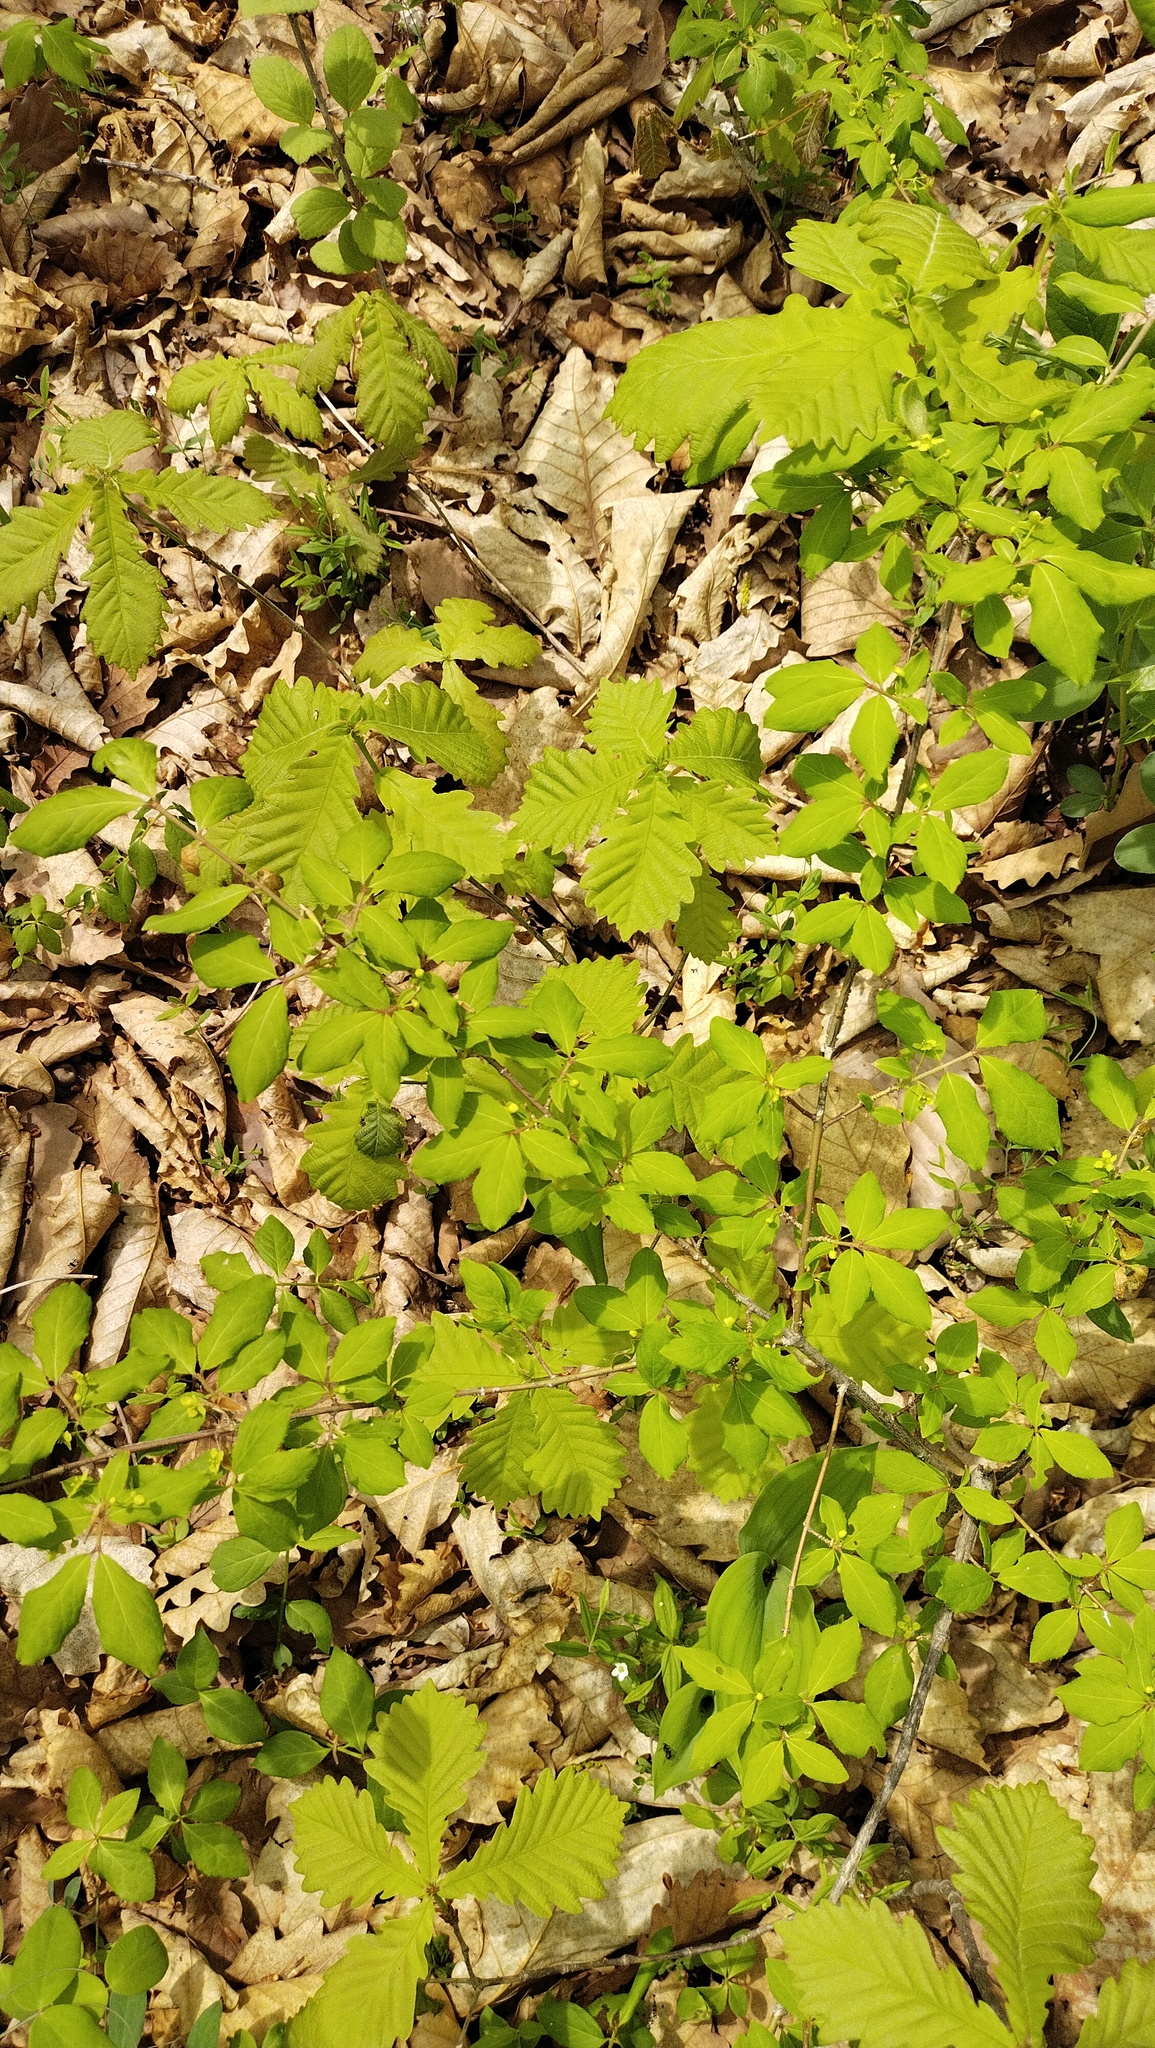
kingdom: Plantae
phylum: Tracheophyta
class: Magnoliopsida
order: Celastrales
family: Celastraceae
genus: Euonymus
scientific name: Euonymus alatus
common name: Winged euonymus
